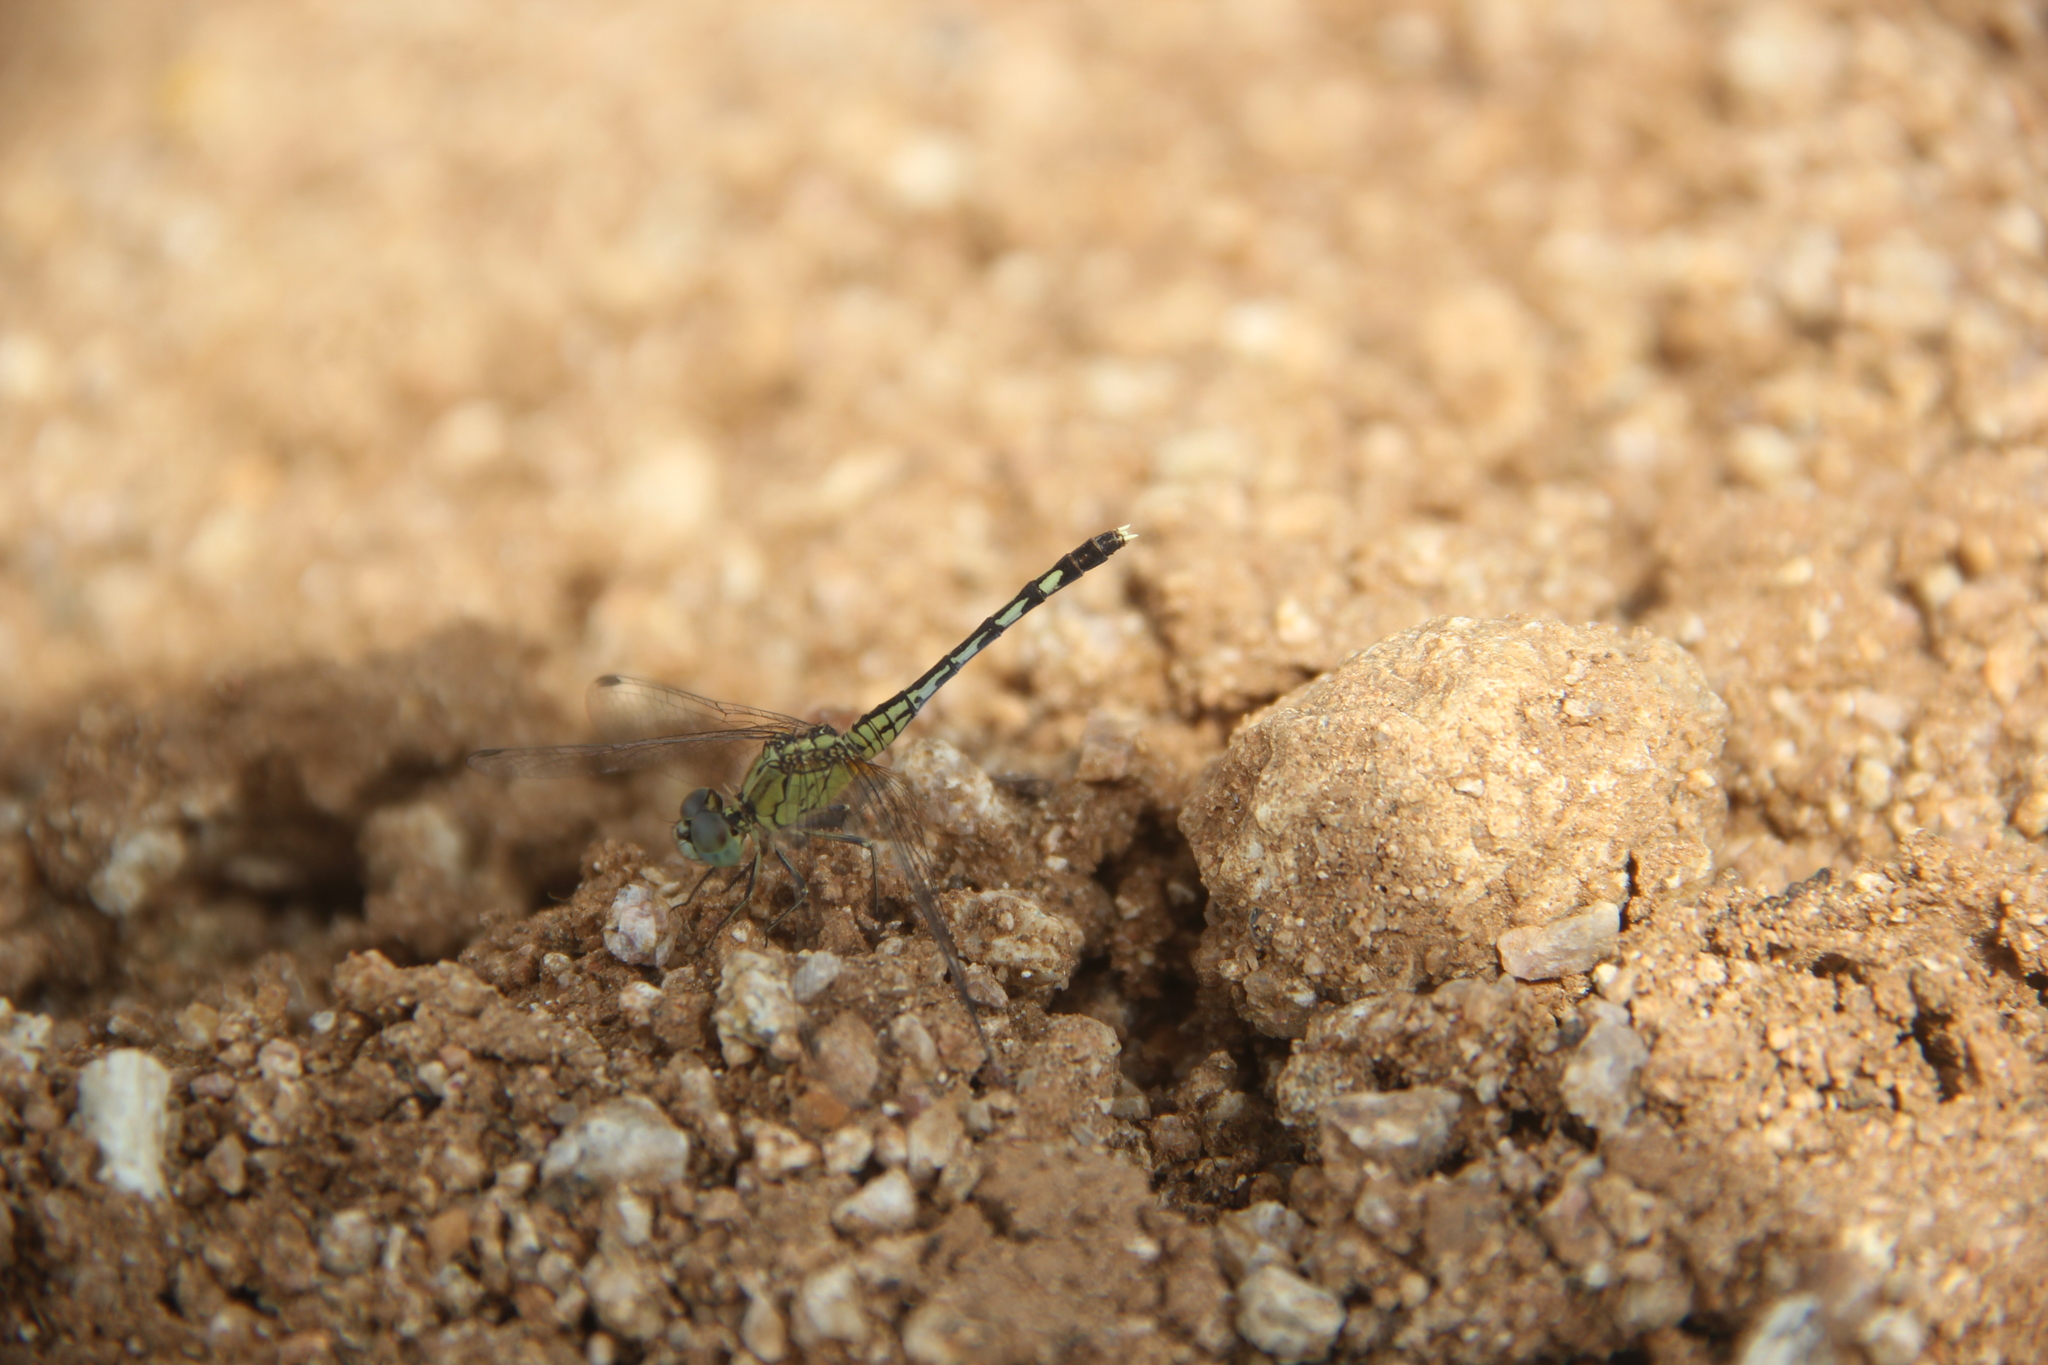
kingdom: Animalia
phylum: Arthropoda
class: Insecta
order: Odonata
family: Libellulidae
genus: Diplacodes
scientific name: Diplacodes trivialis
